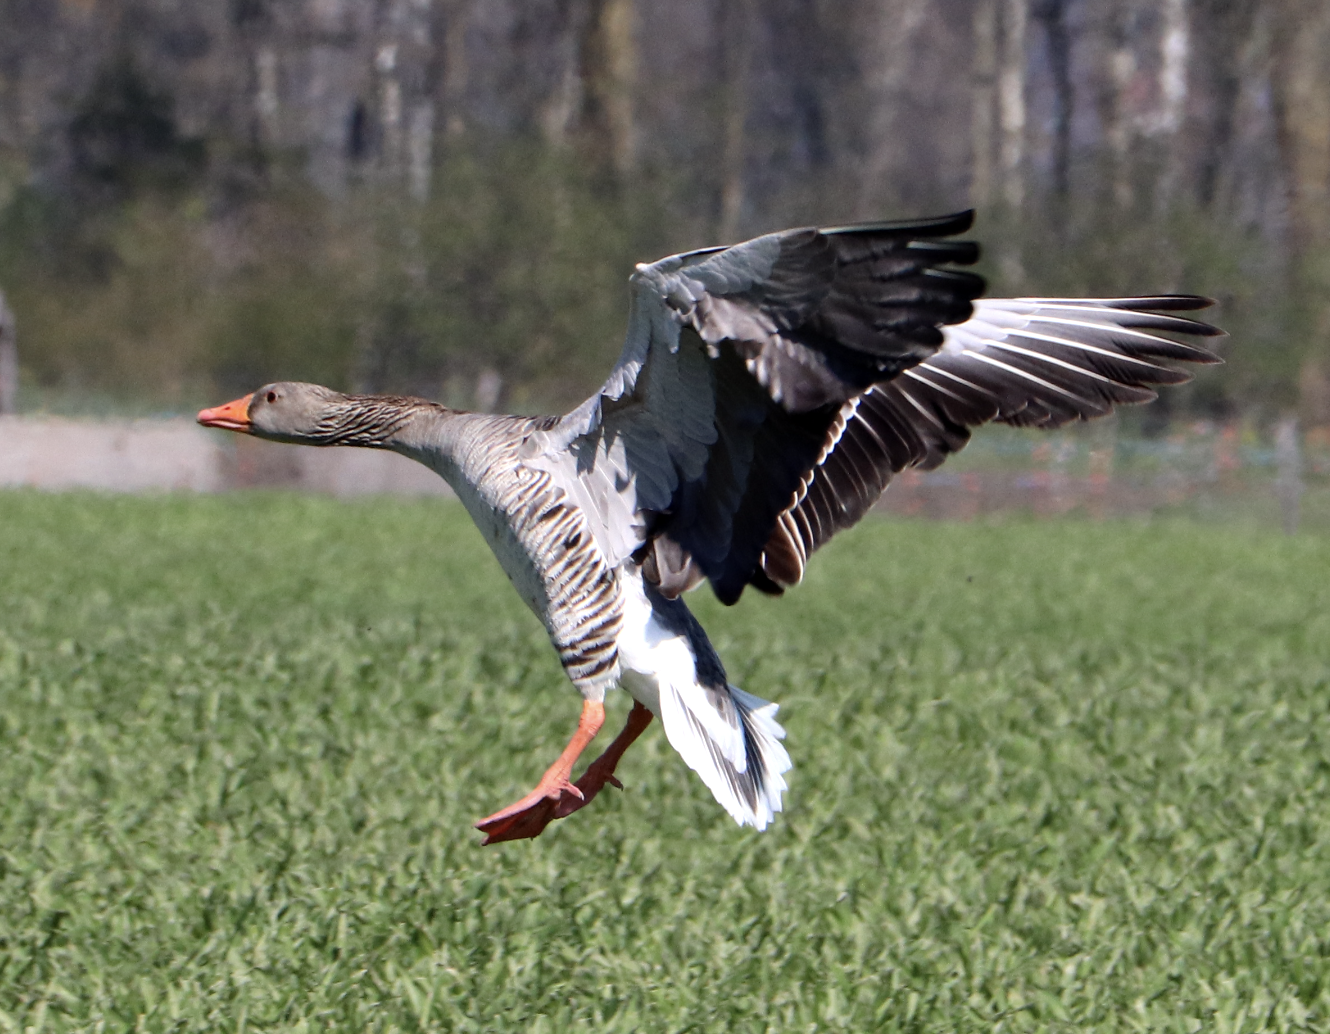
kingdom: Animalia
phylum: Chordata
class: Aves
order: Anseriformes
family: Anatidae
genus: Anser
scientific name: Anser anser
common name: Greylag goose
